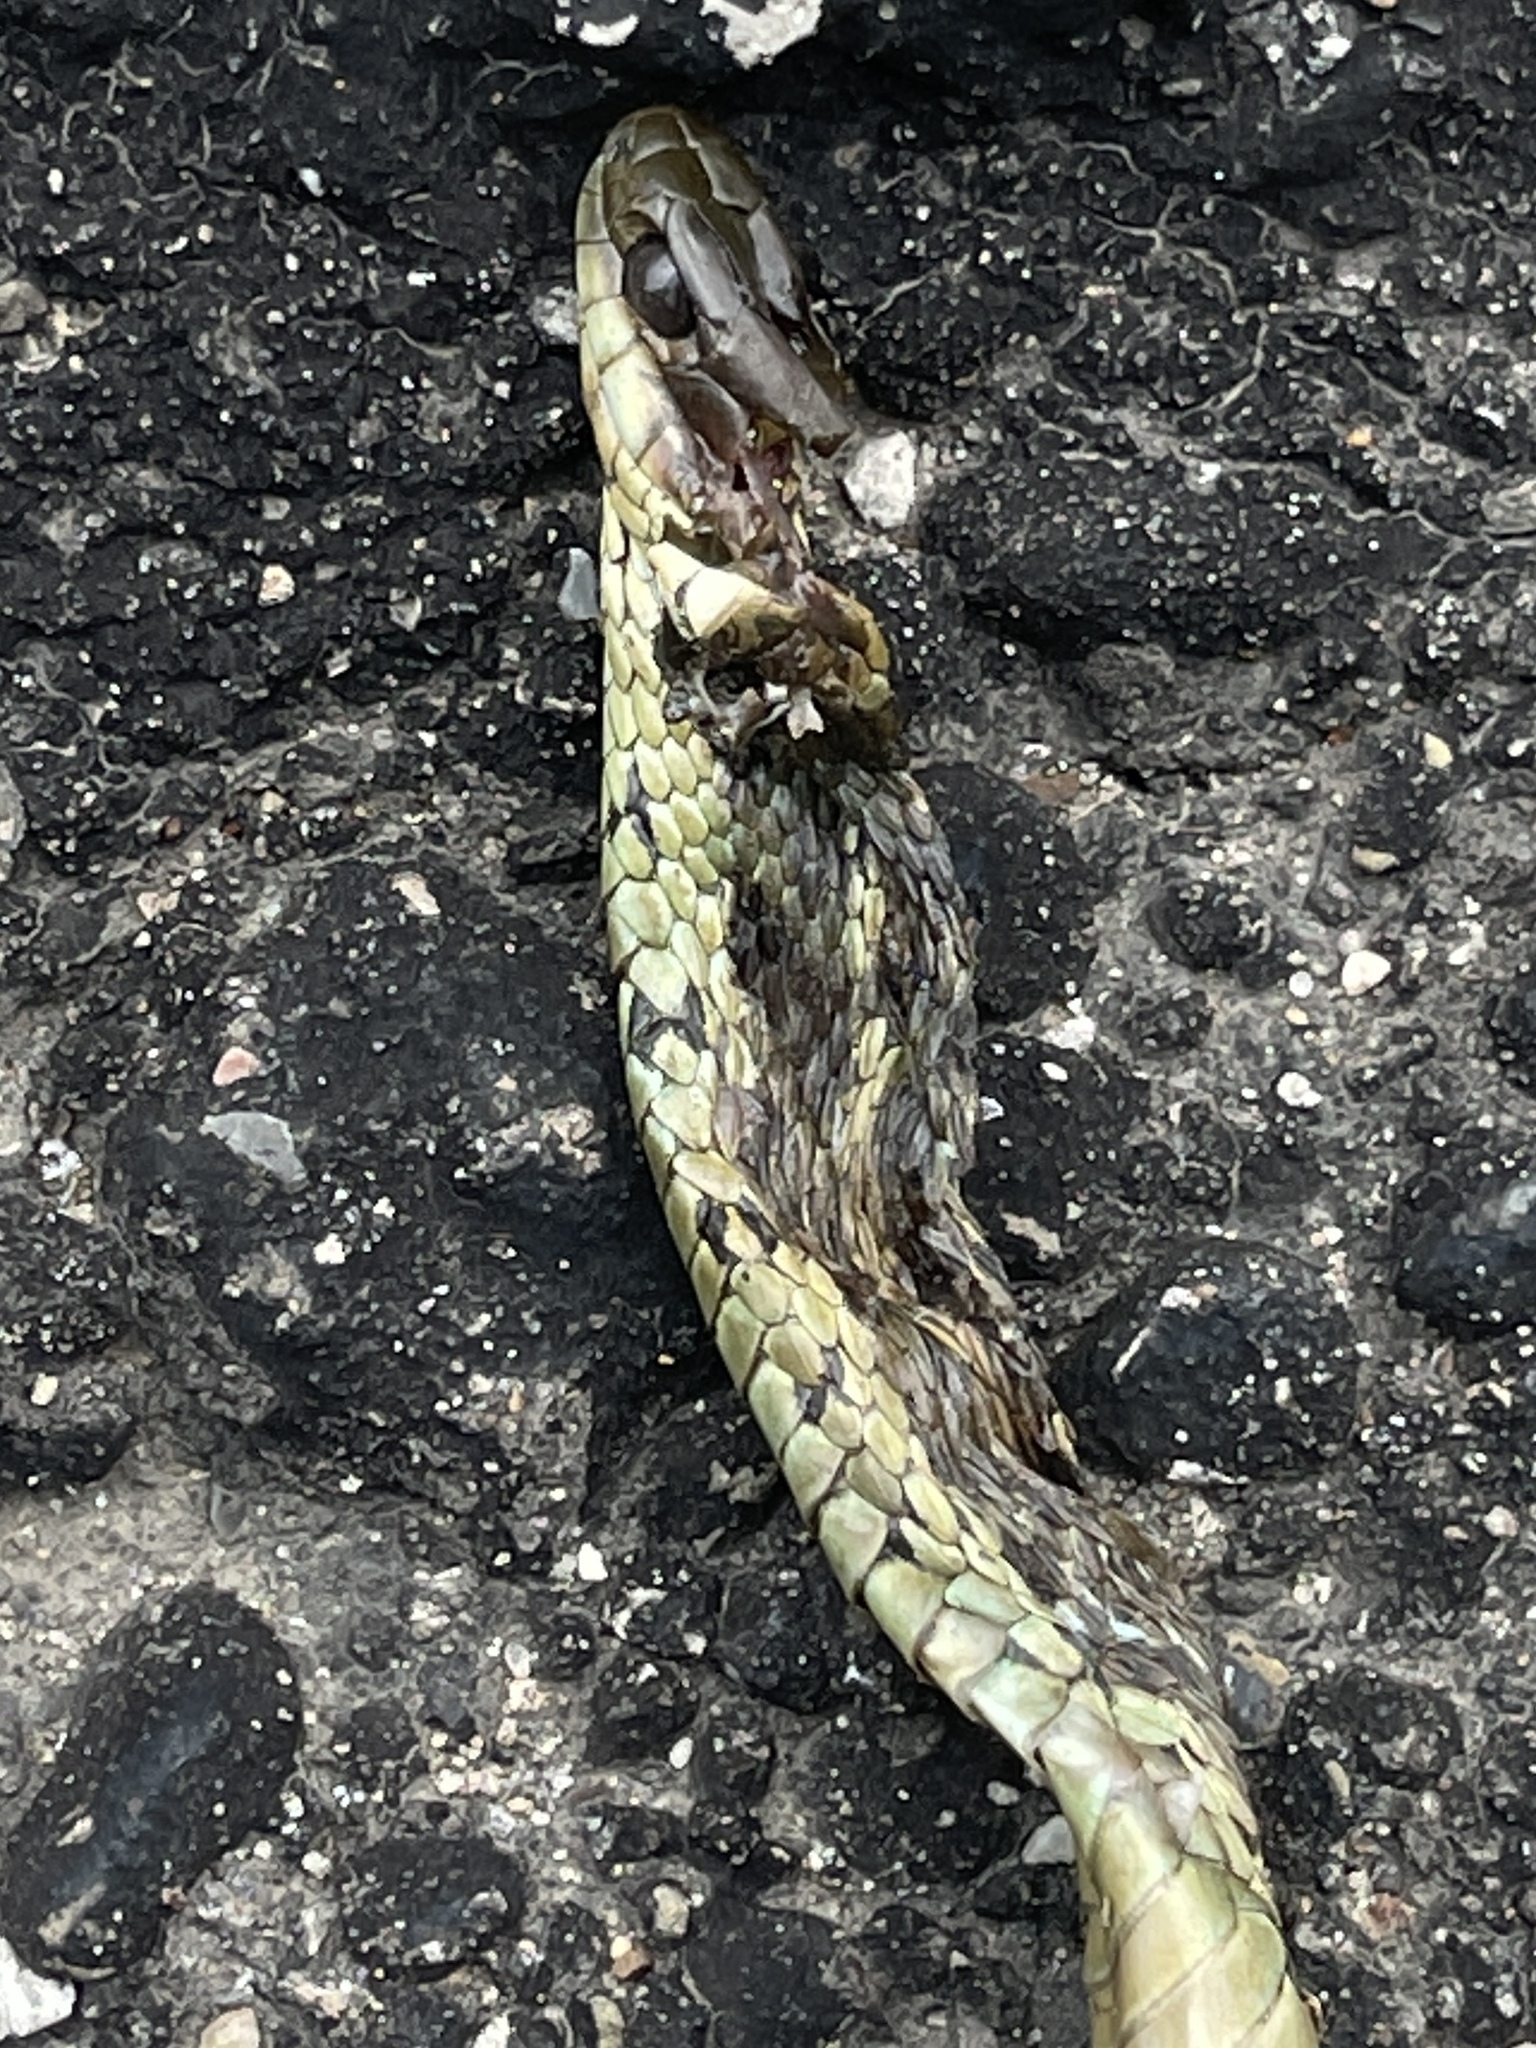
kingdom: Animalia
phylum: Chordata
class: Squamata
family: Colubridae
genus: Thamnophis
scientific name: Thamnophis sirtalis
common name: Common garter snake
